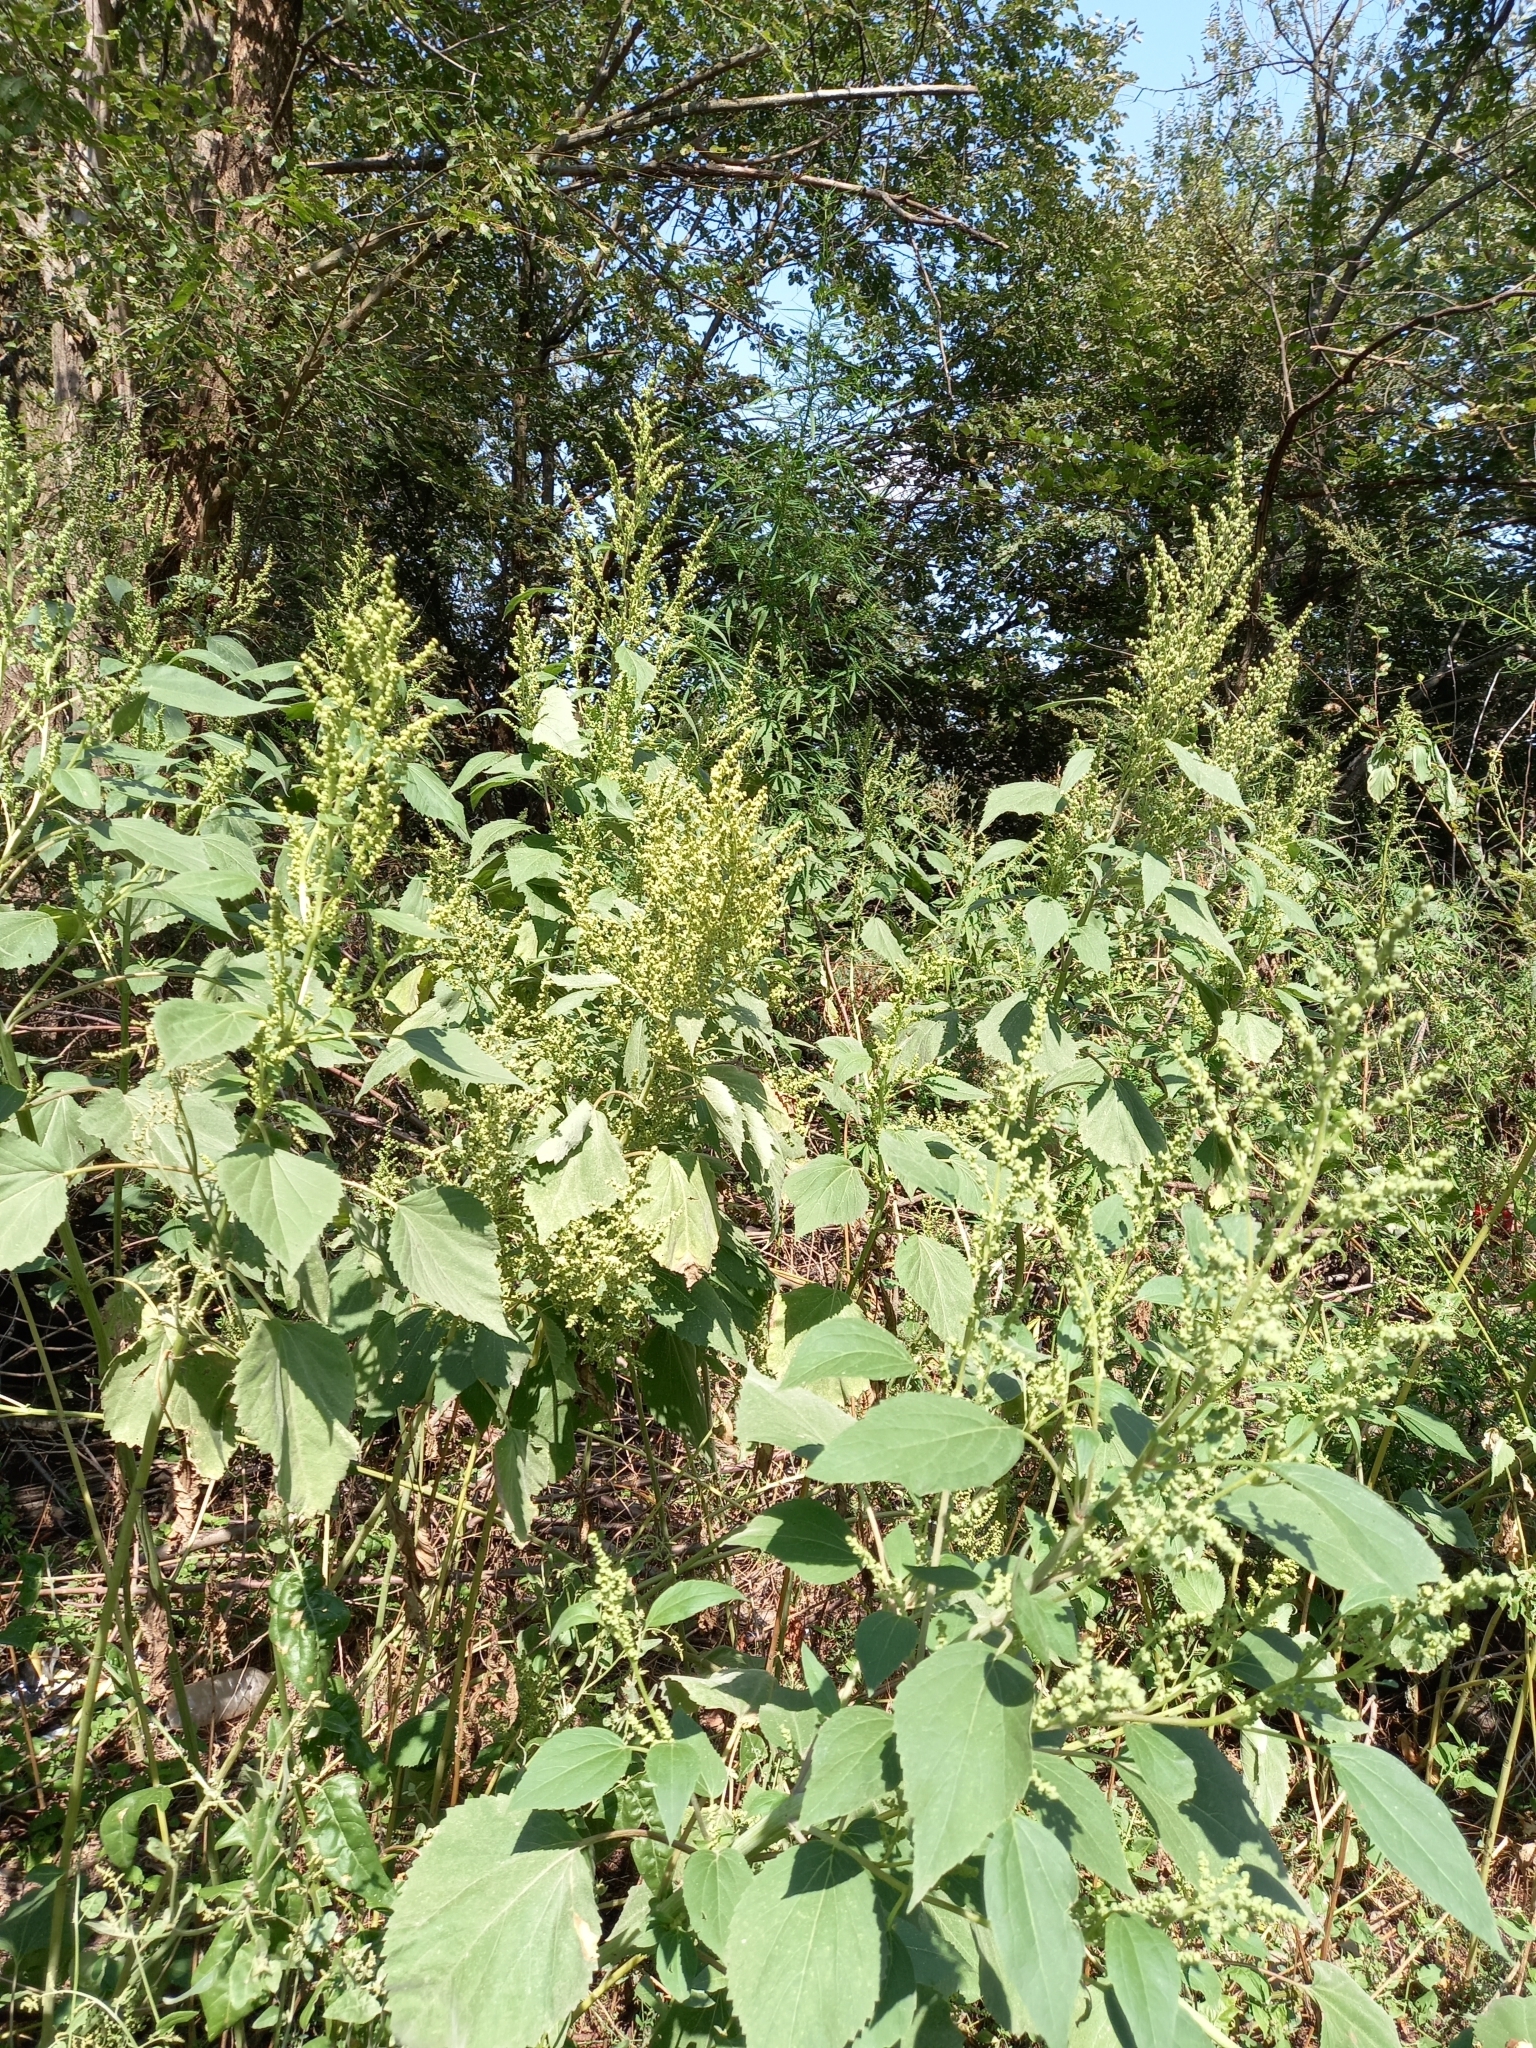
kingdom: Plantae
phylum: Tracheophyta
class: Magnoliopsida
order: Asterales
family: Asteraceae
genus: Cyclachaena
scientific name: Cyclachaena xanthiifolia
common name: Giant sumpweed
